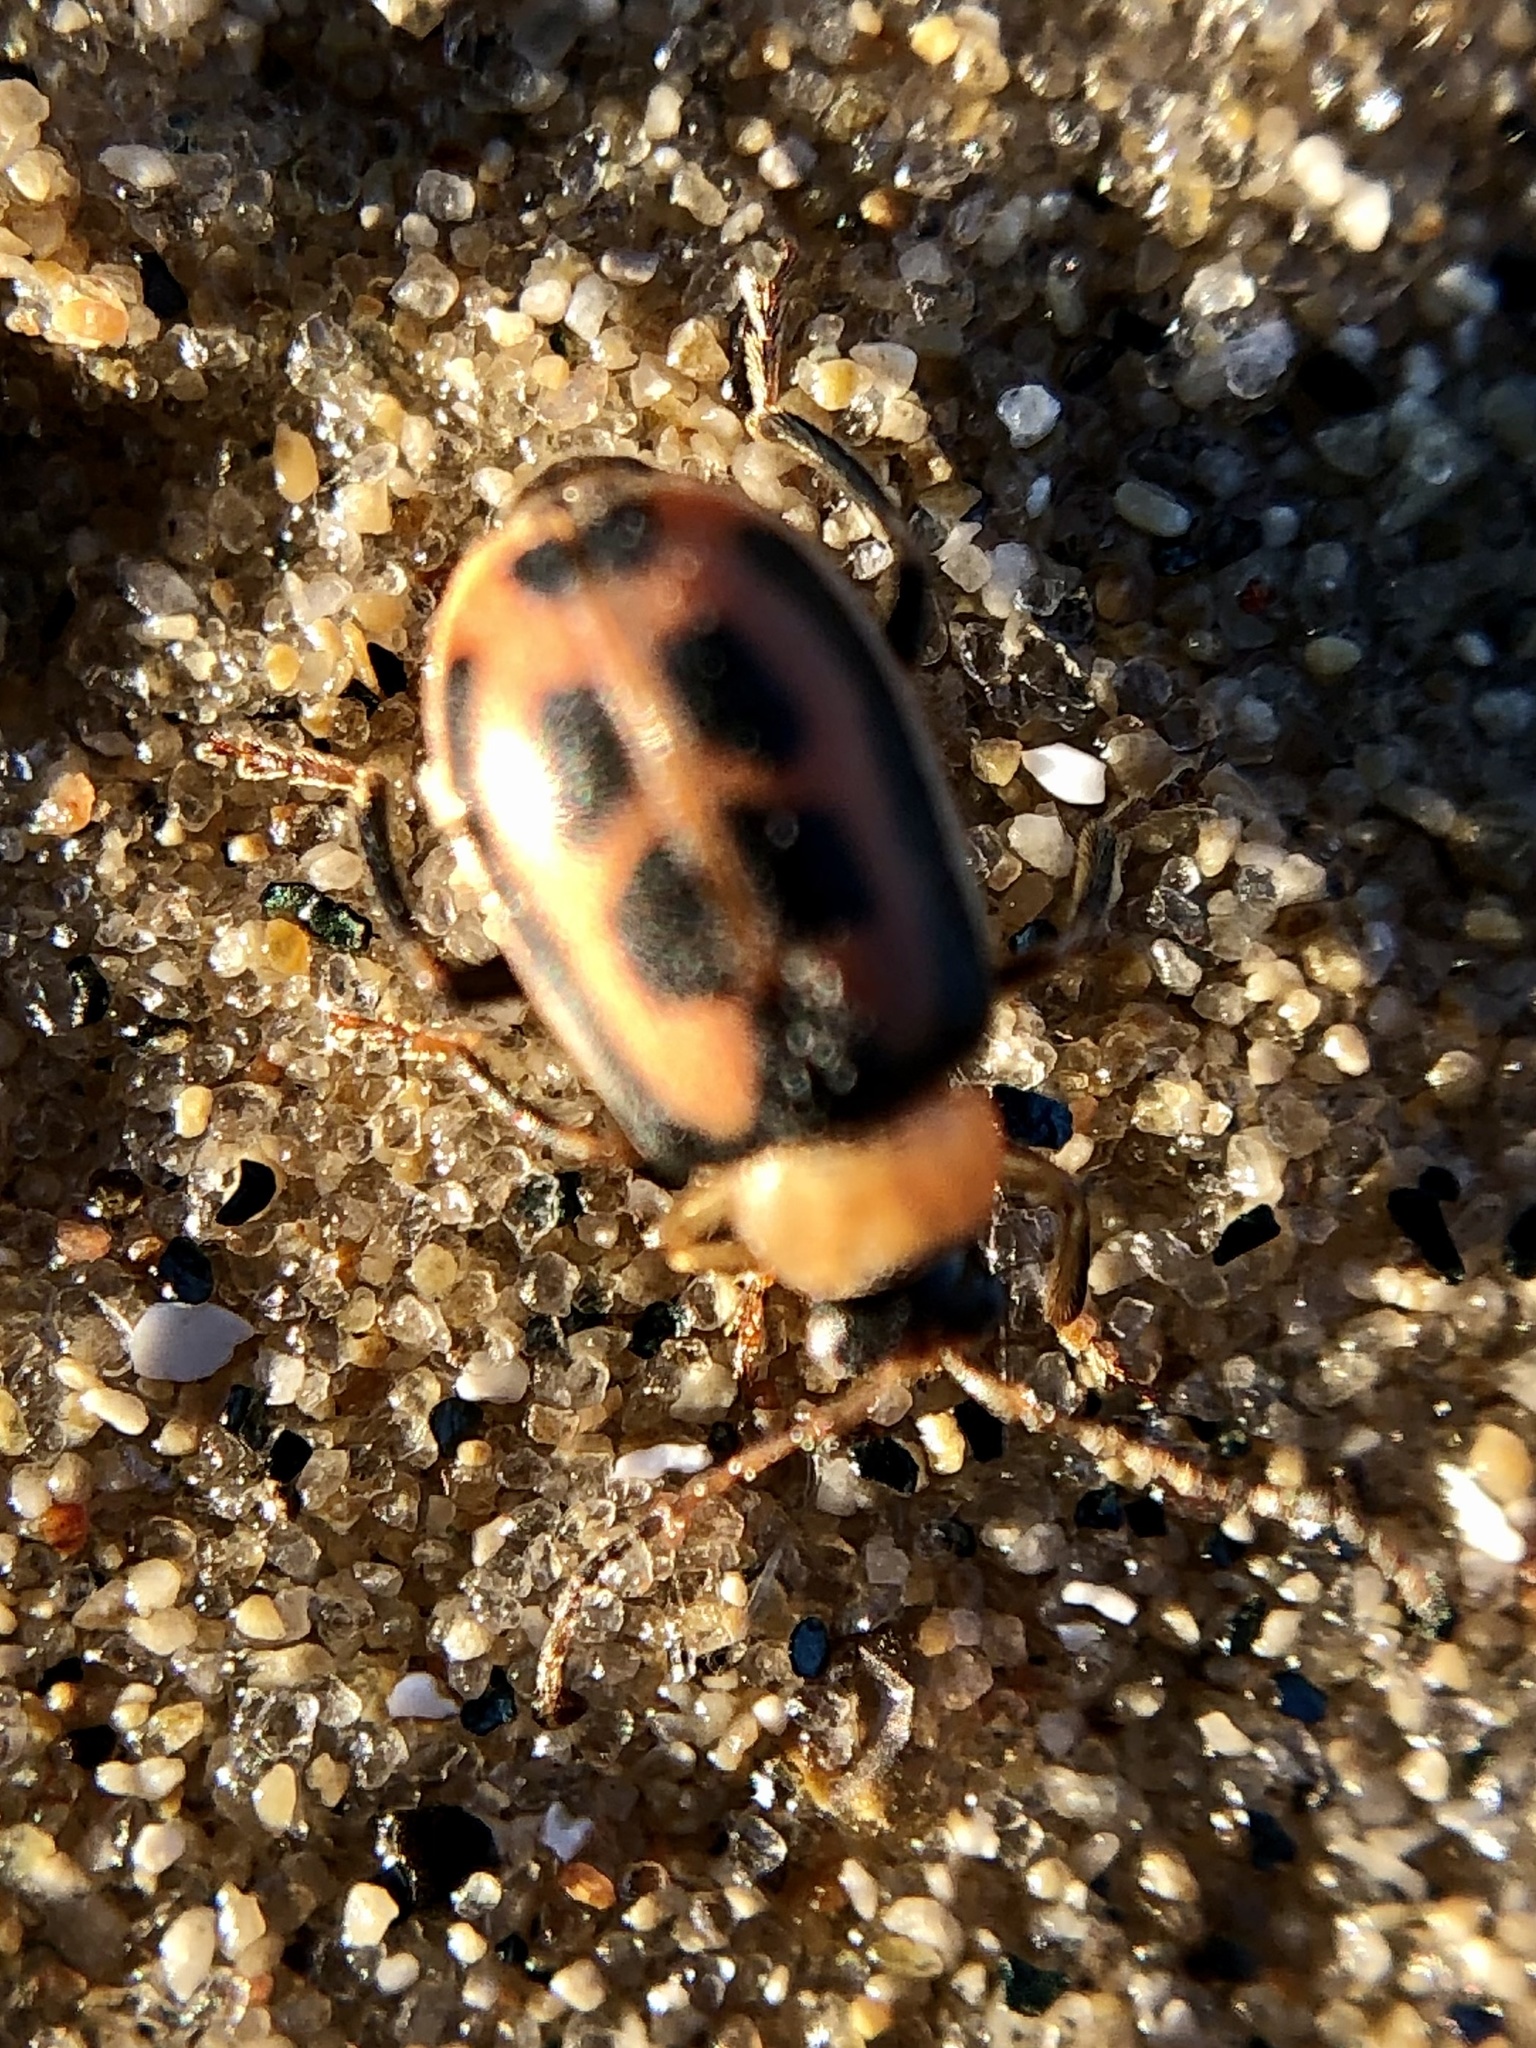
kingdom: Animalia
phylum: Arthropoda
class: Insecta
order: Coleoptera
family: Chrysomelidae
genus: Cerotoma
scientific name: Cerotoma trifurcata
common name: Bean leaf beetle
